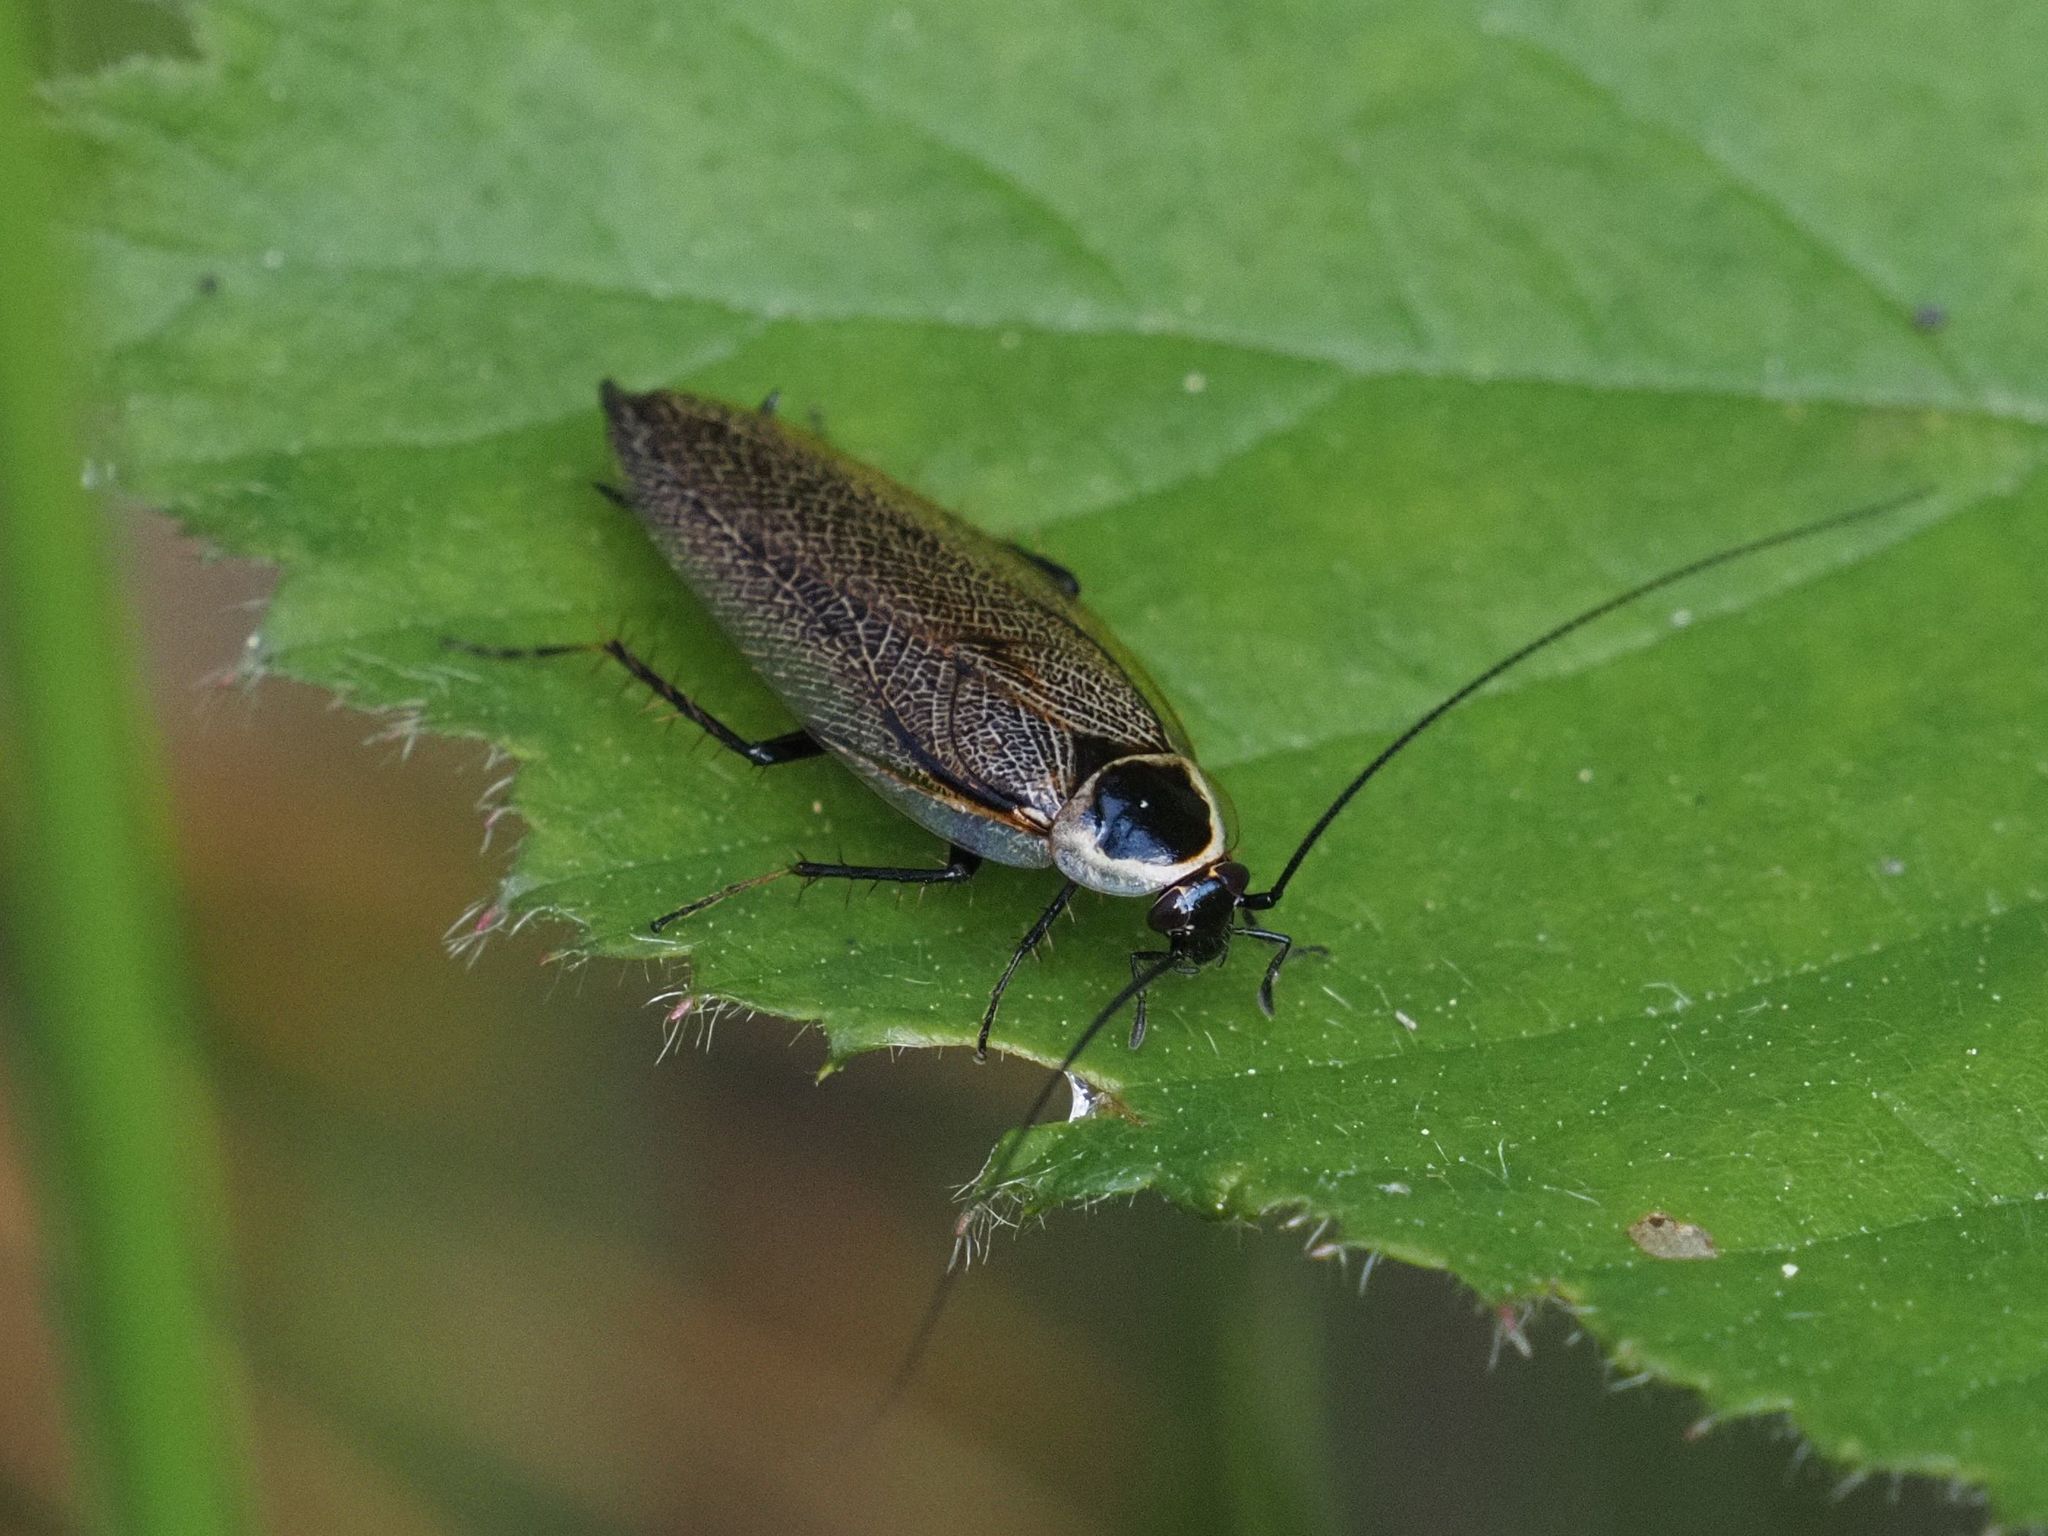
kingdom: Animalia
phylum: Arthropoda
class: Insecta
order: Blattodea
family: Ectobiidae
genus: Ectobius
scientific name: Ectobius sylvestris
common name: Forest cockroach
